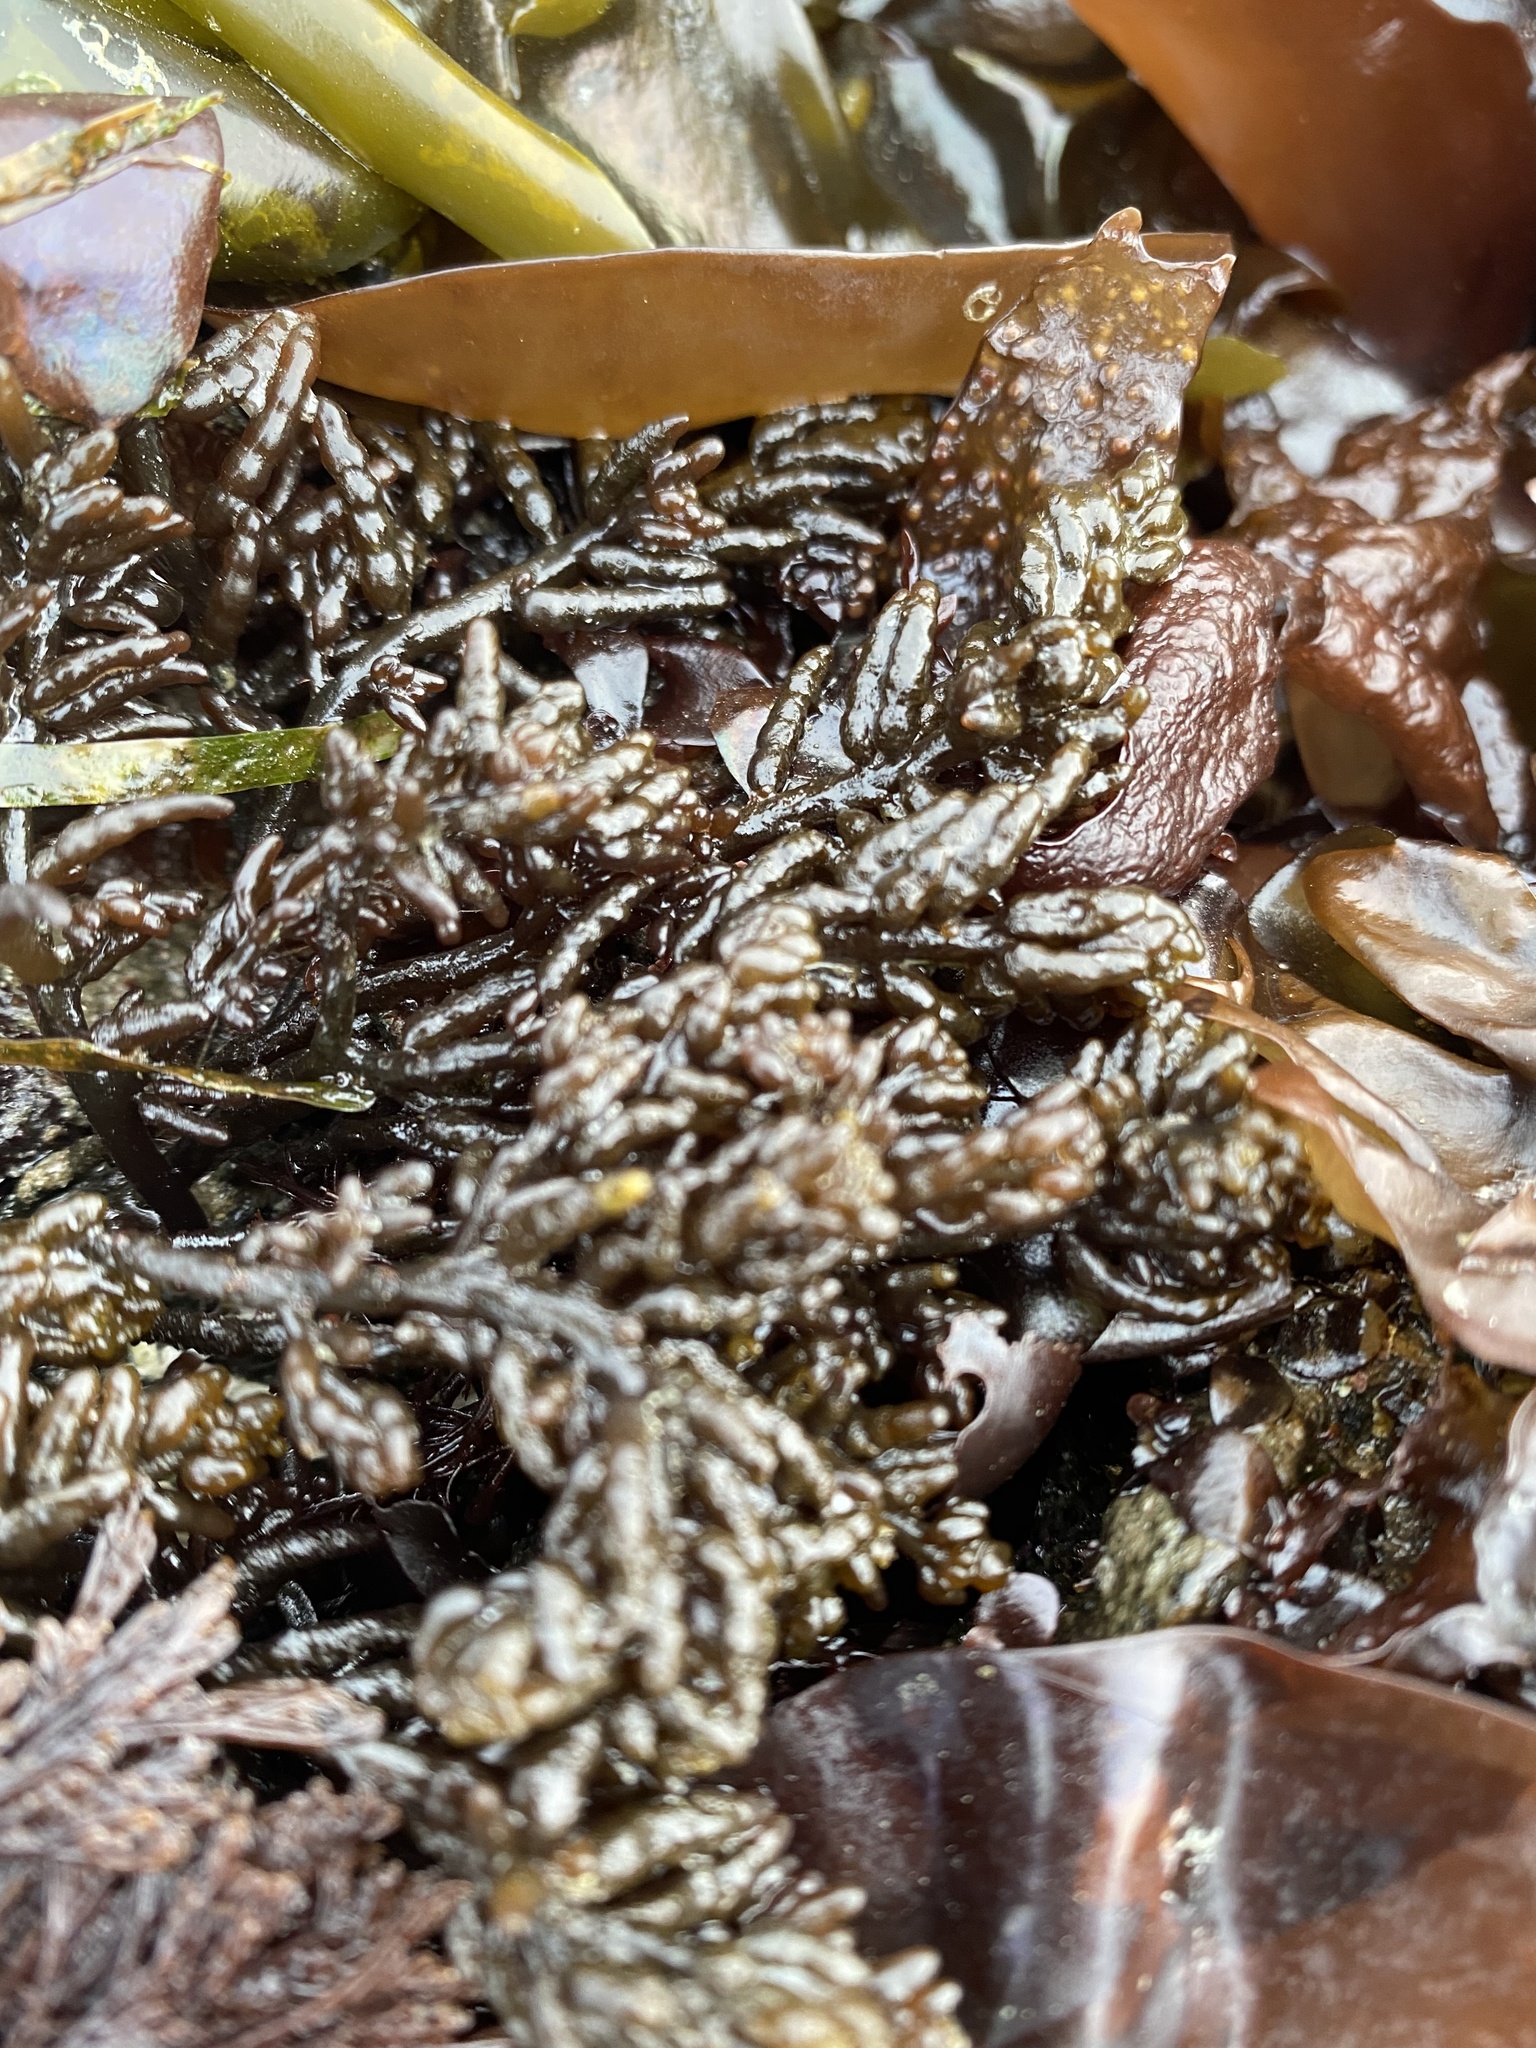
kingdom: Plantae
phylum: Rhodophyta
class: Florideophyceae
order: Rhodymeniales
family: Champiaceae
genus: Neogastroclonium
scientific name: Neogastroclonium subarticulatum
